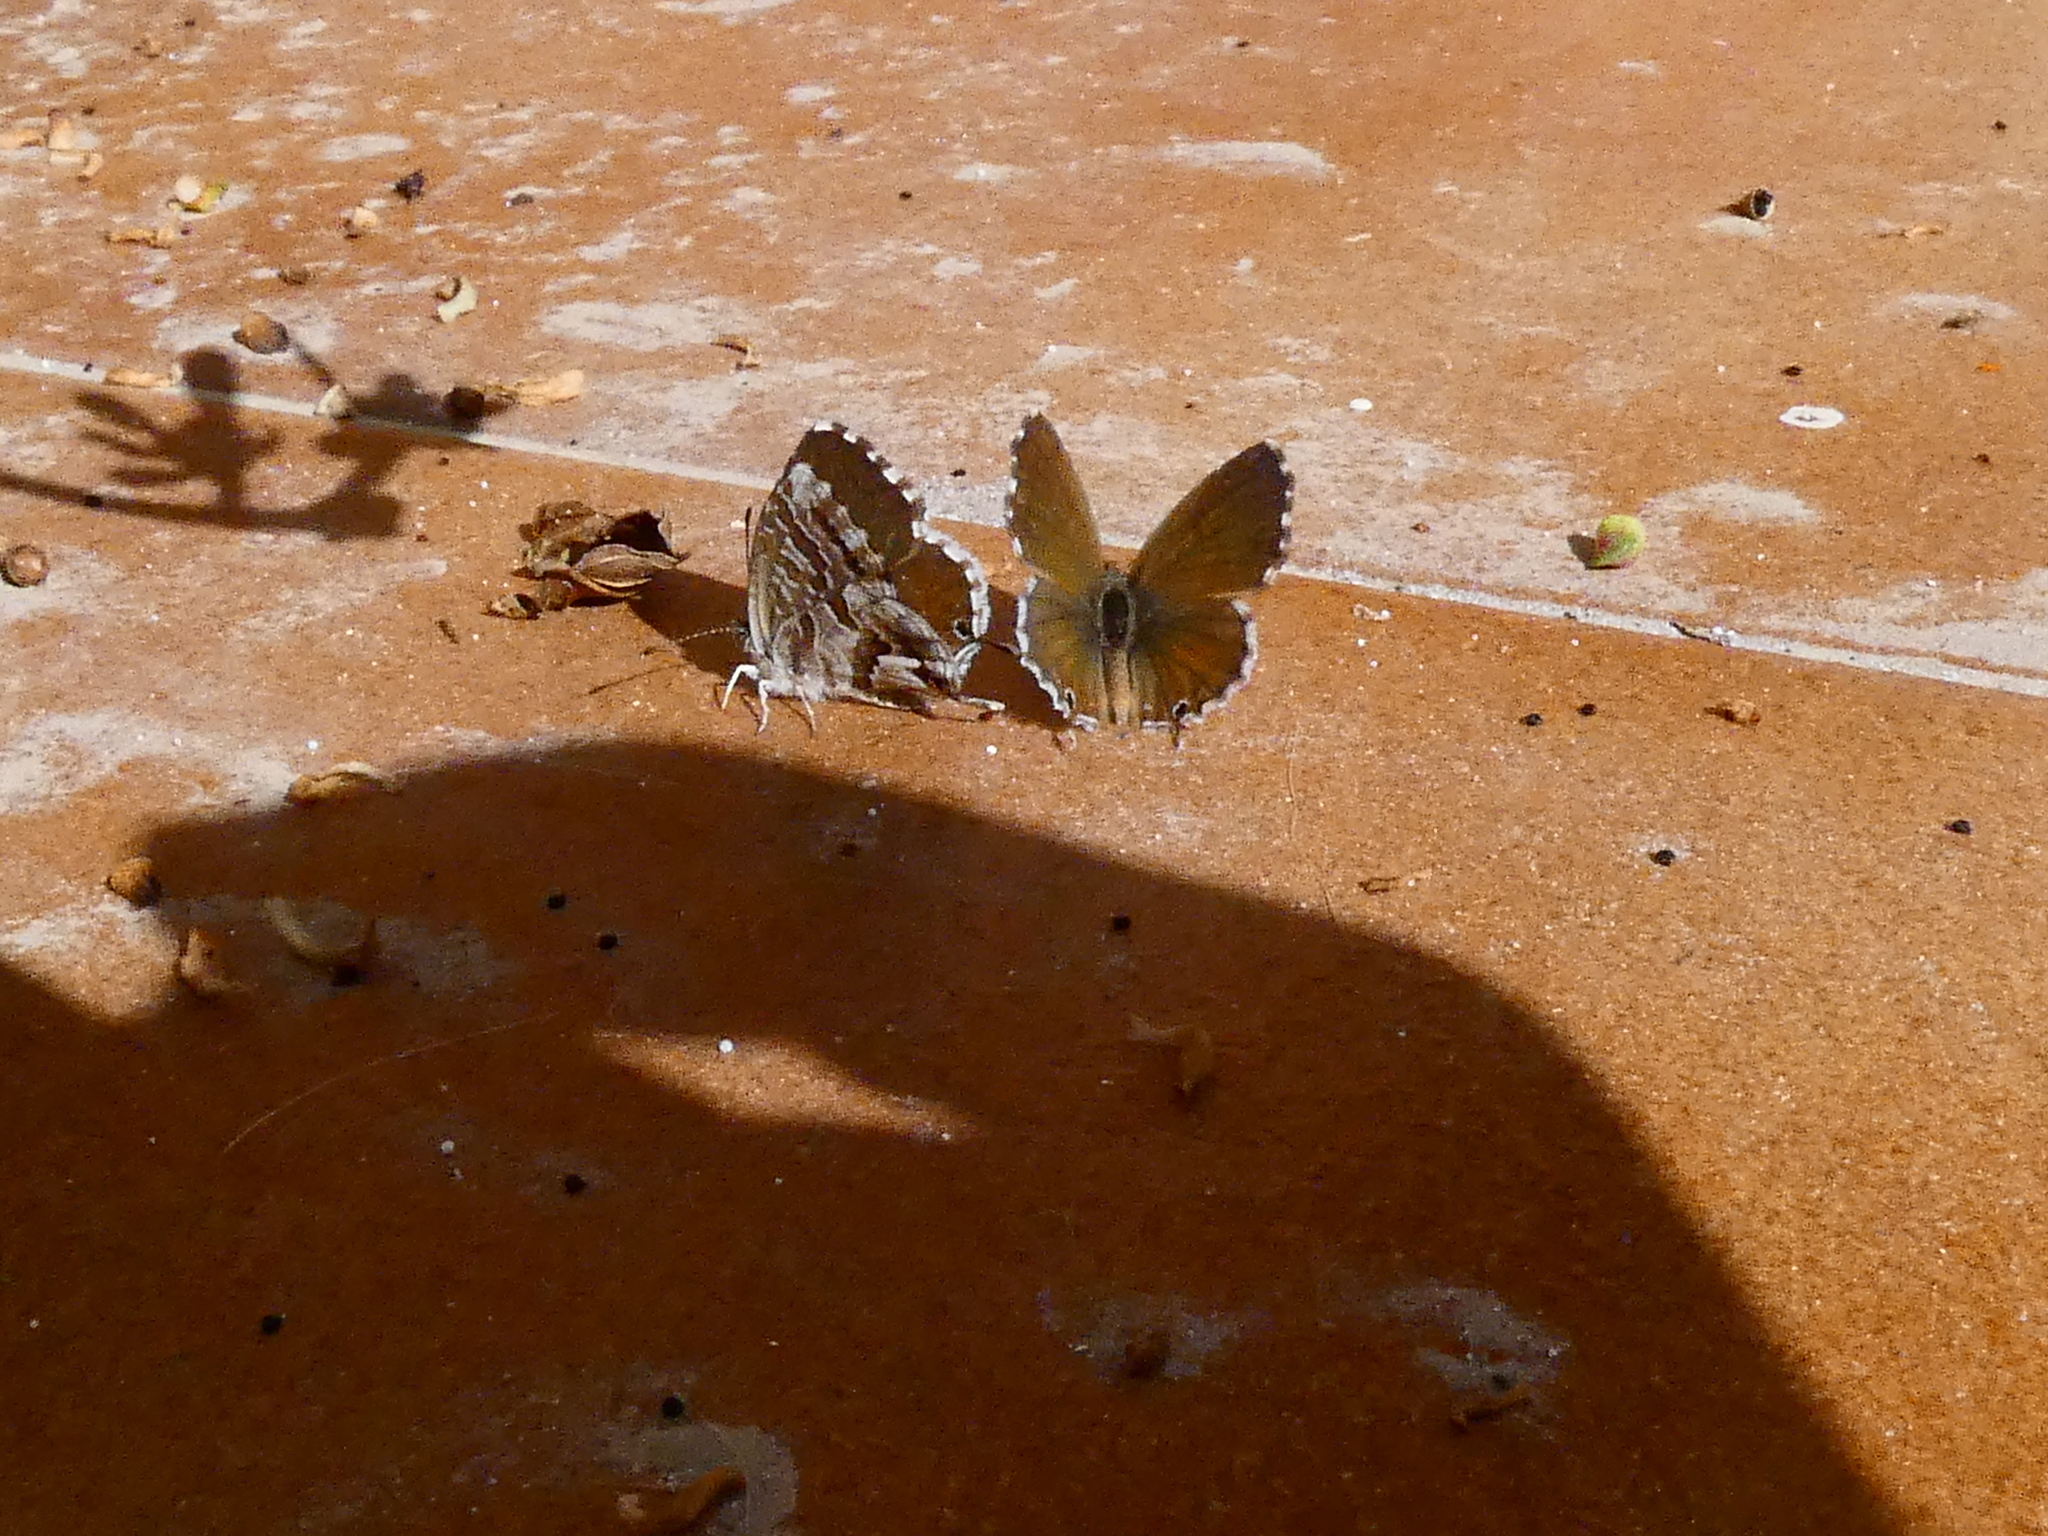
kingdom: Animalia
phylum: Arthropoda
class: Insecta
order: Lepidoptera
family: Lycaenidae
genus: Cacyreus
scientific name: Cacyreus marshalli
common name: Geranium bronze
